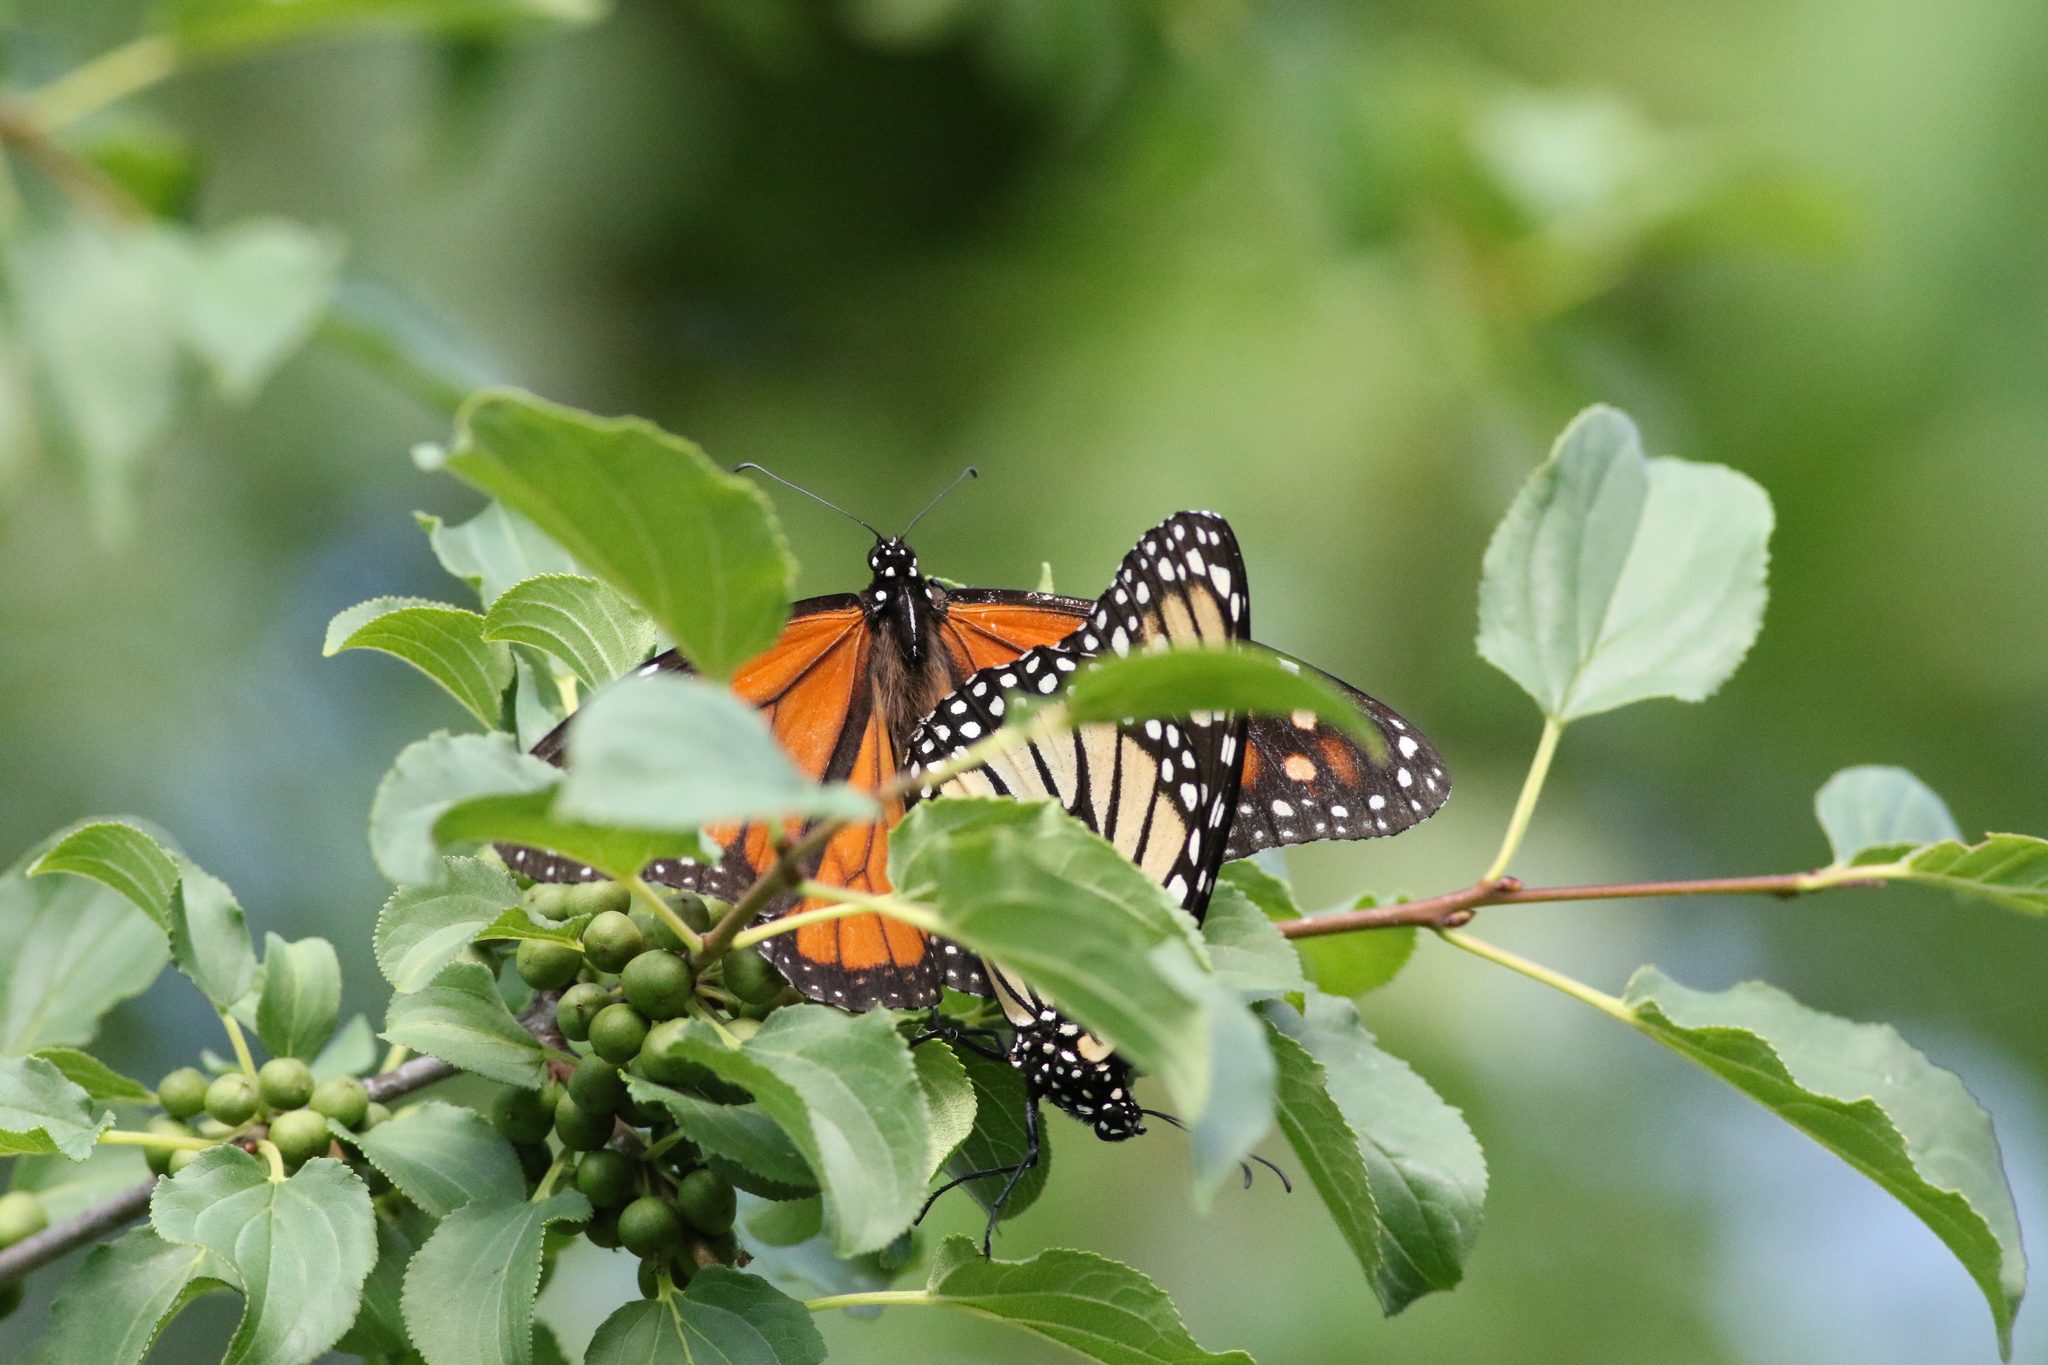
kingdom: Animalia
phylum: Arthropoda
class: Insecta
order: Lepidoptera
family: Nymphalidae
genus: Danaus
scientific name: Danaus plexippus
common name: Monarch
